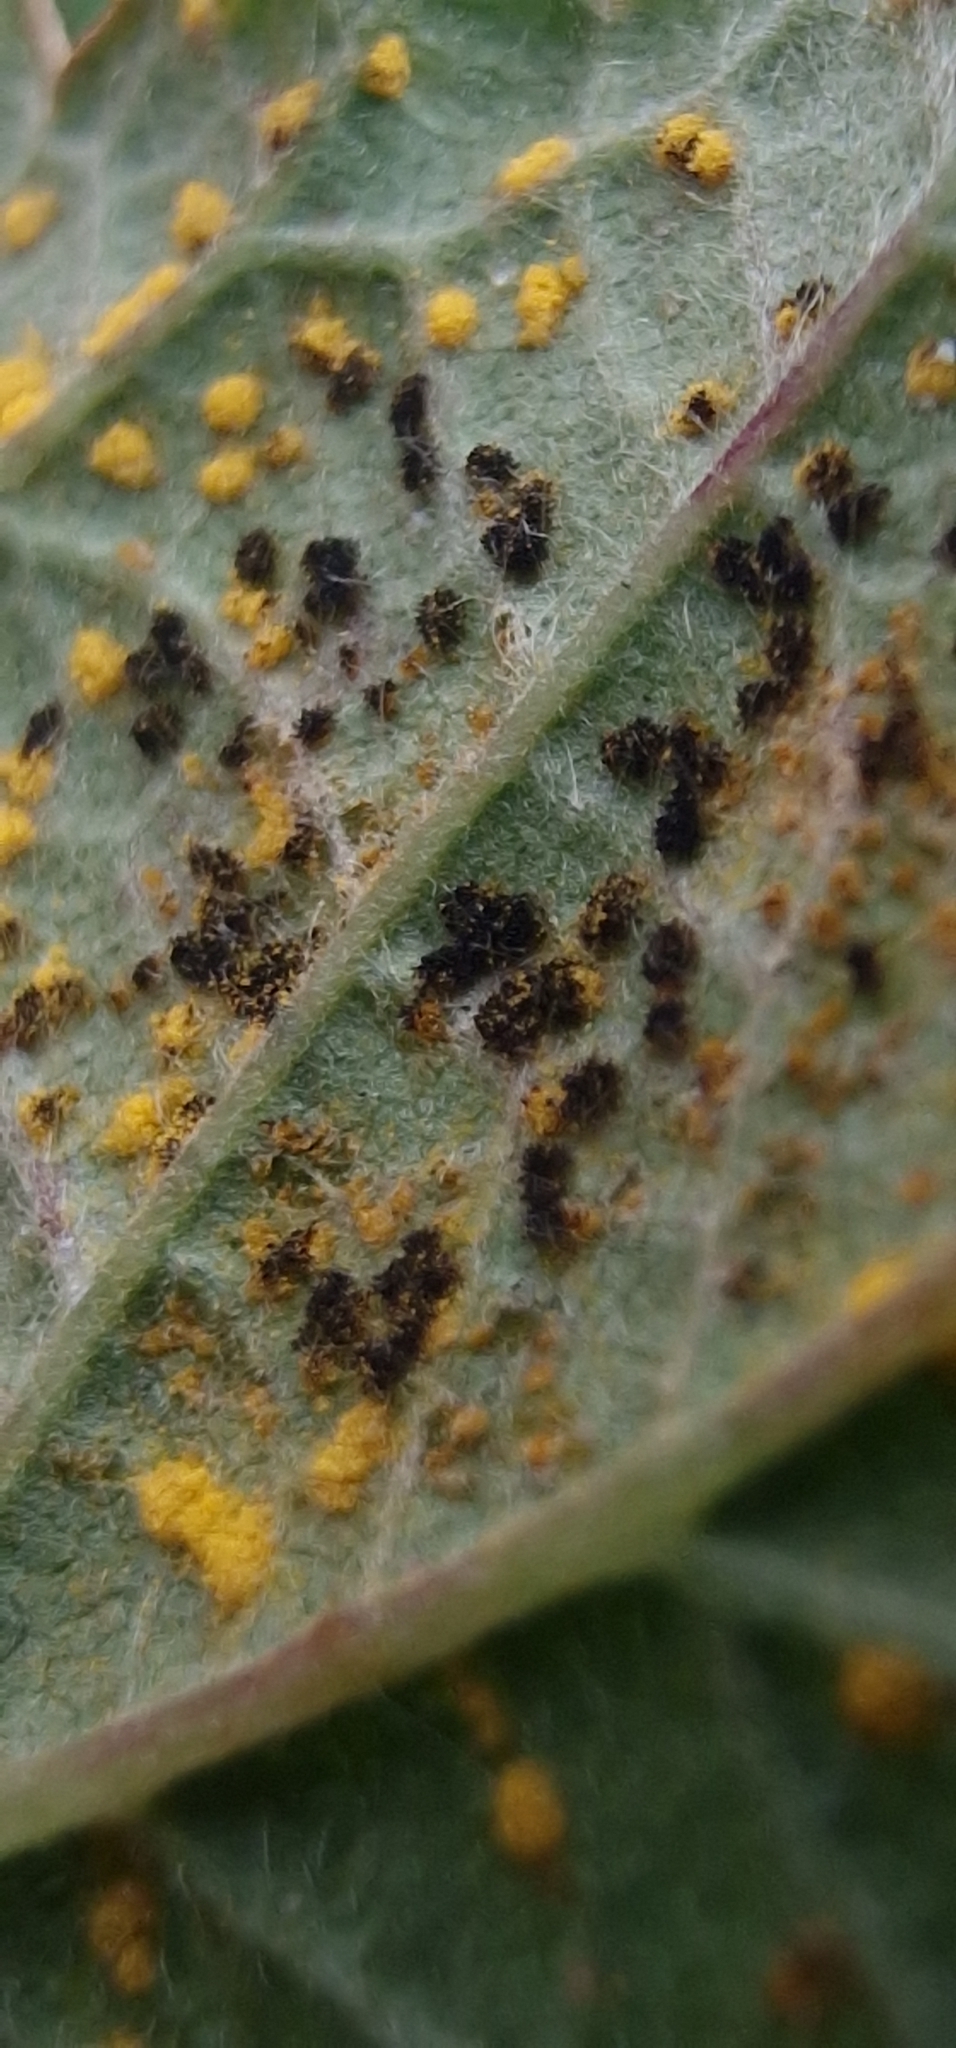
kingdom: Fungi
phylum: Basidiomycota
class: Pucciniomycetes
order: Pucciniales
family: Phragmidiaceae
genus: Phragmidium
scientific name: Phragmidium violaceum
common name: Violet bramble rust
